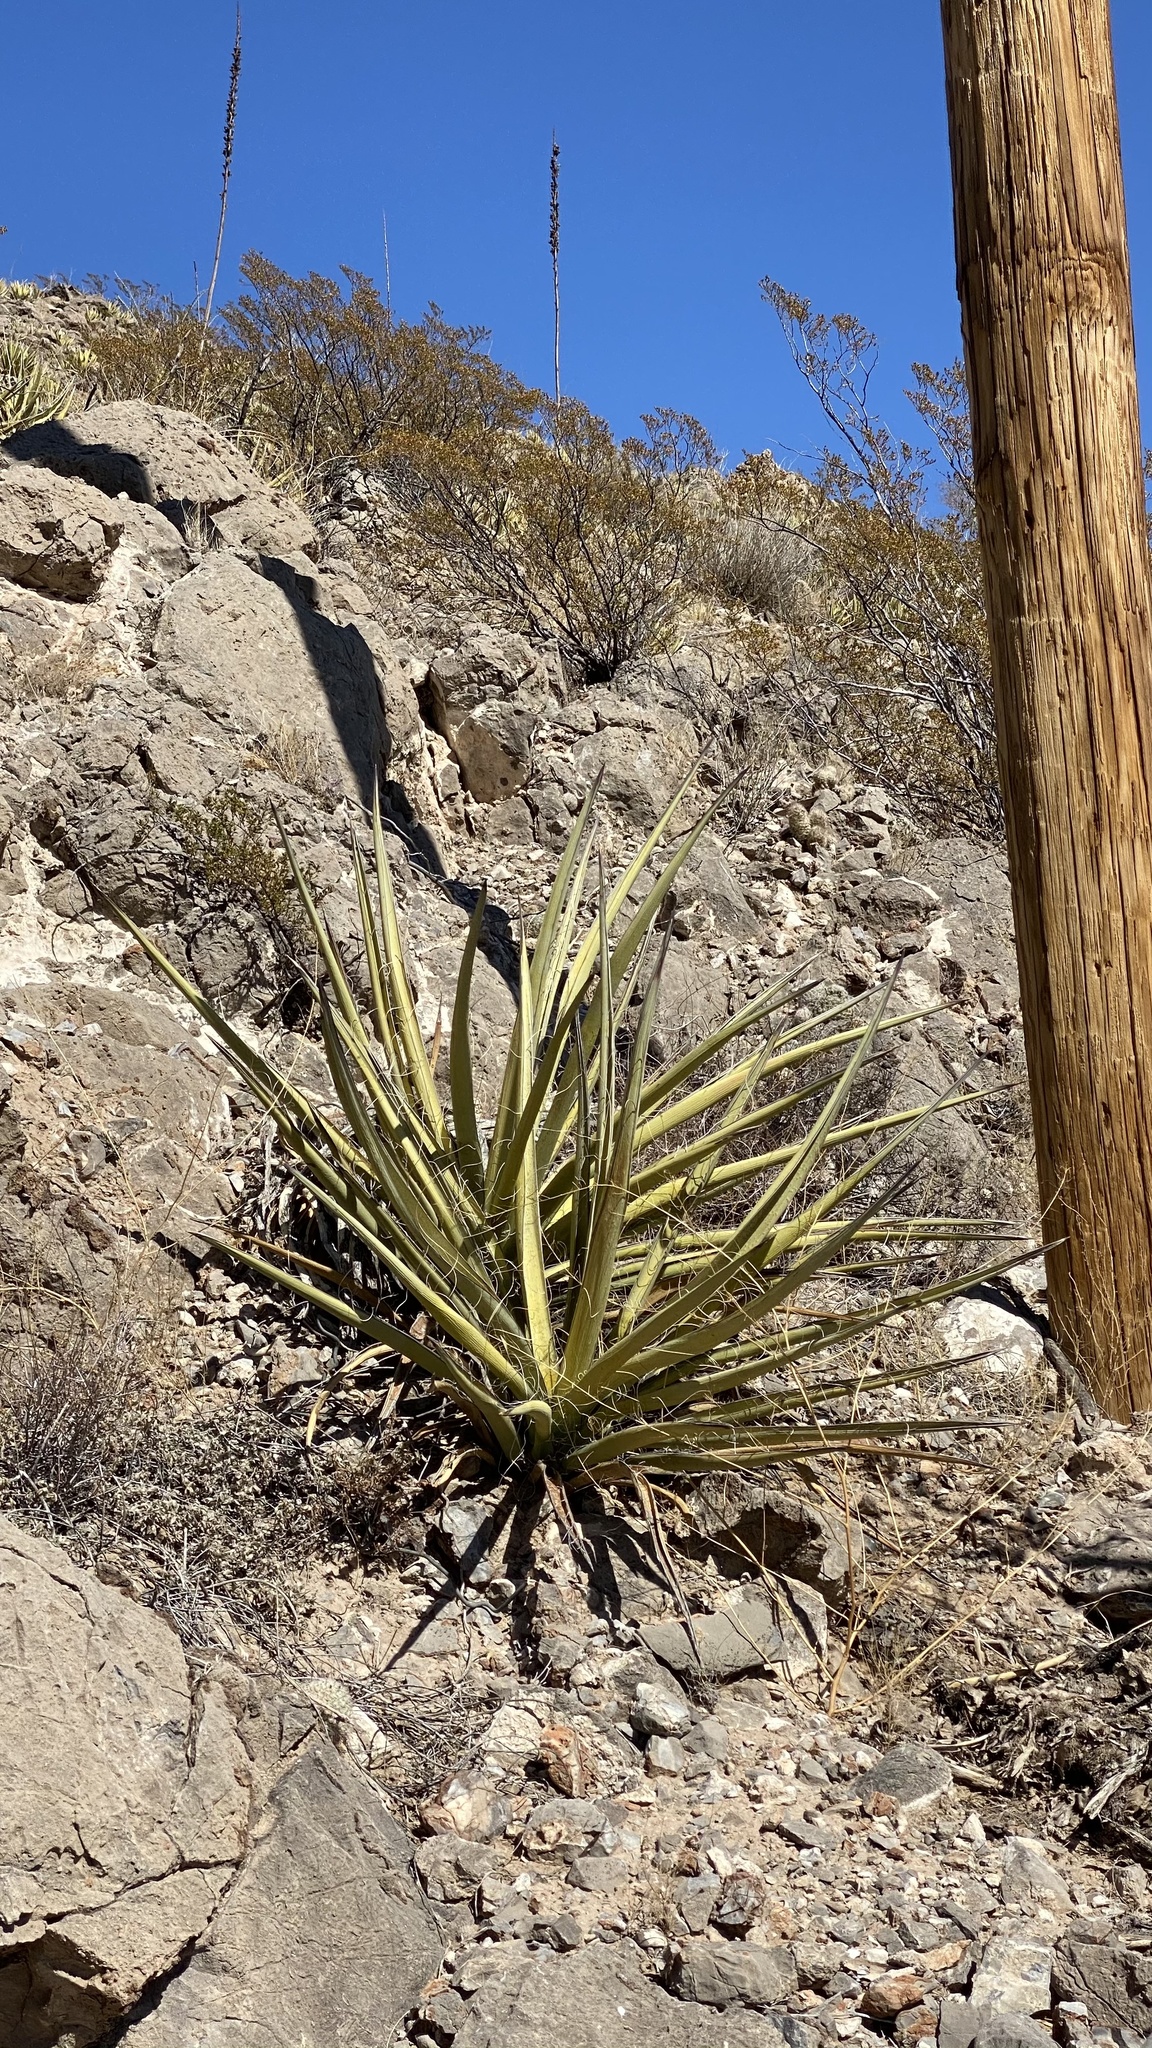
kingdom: Plantae
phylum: Tracheophyta
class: Liliopsida
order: Asparagales
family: Asparagaceae
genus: Yucca
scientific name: Yucca baccata
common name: Banana yucca
